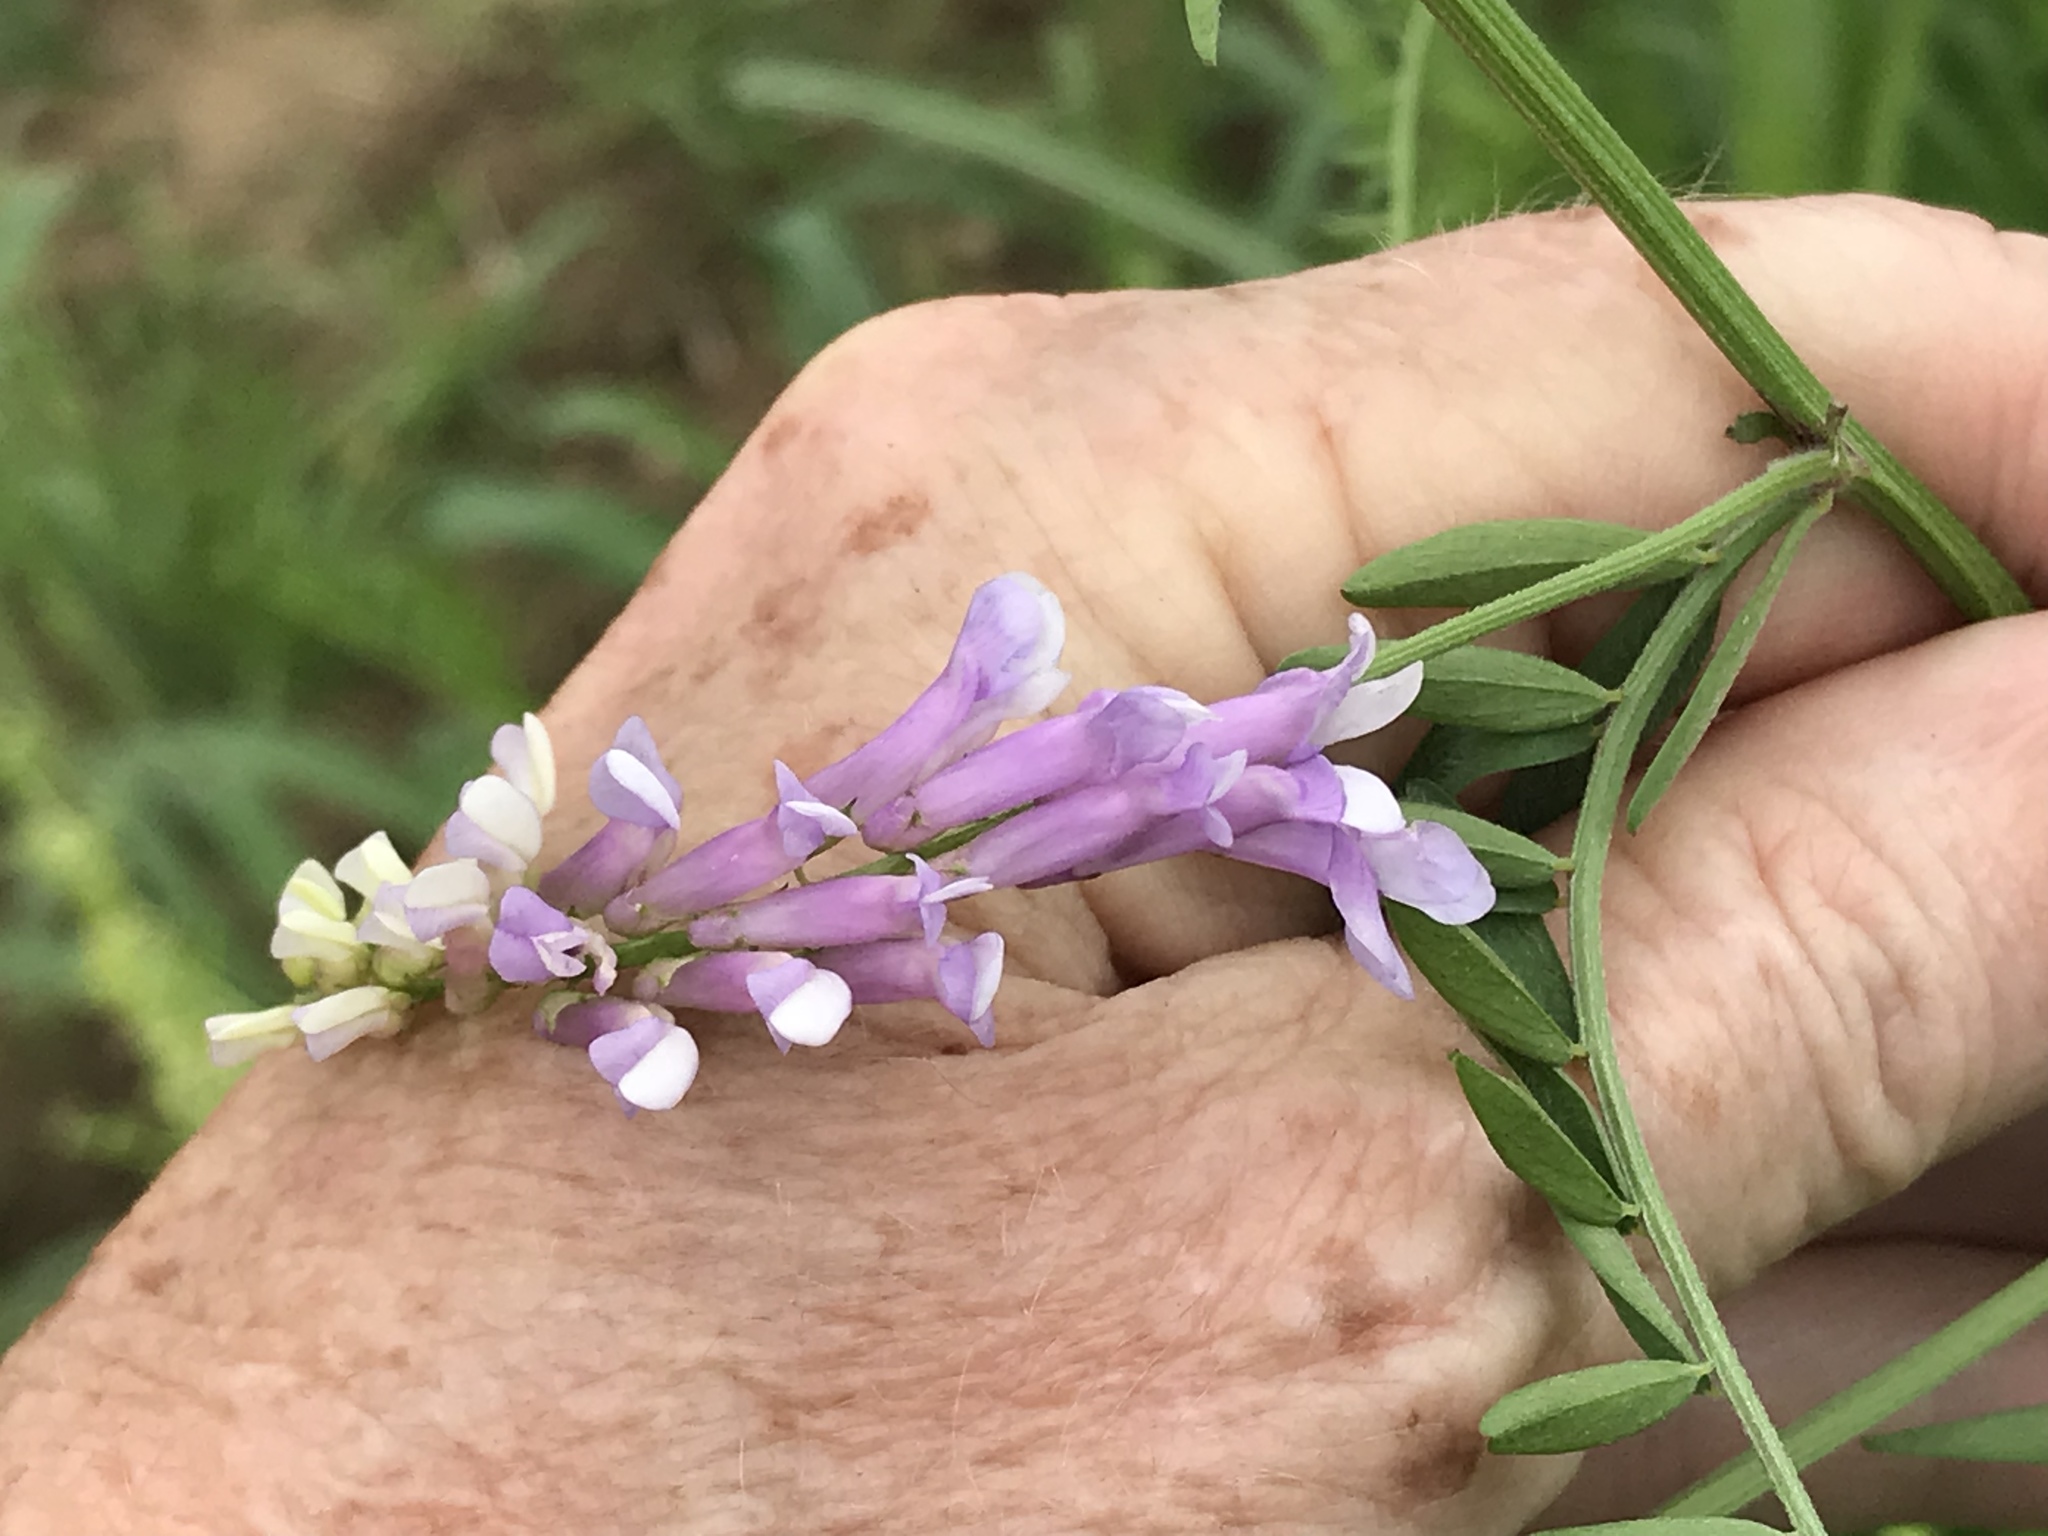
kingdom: Plantae
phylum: Tracheophyta
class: Magnoliopsida
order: Fabales
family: Fabaceae
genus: Vicia
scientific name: Vicia villosa
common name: Fodder vetch
